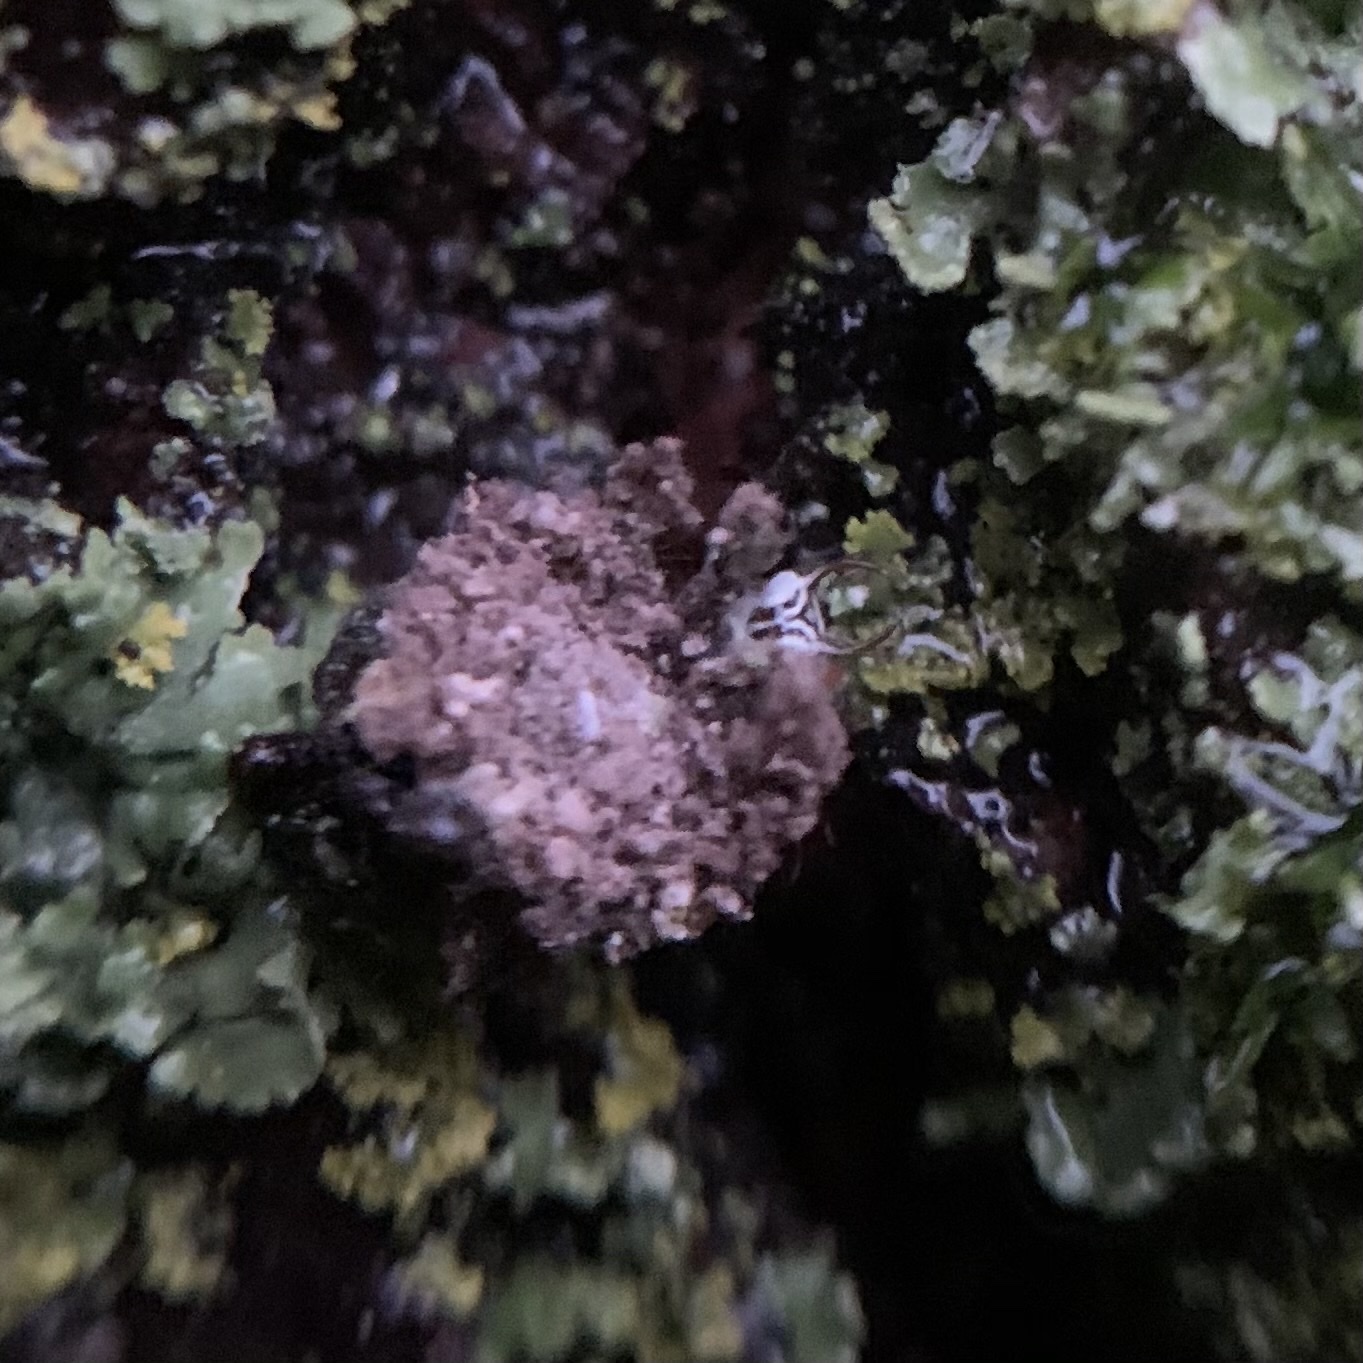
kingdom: Animalia
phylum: Arthropoda
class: Insecta
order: Neuroptera
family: Chrysopidae
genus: Leucochrysa
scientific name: Leucochrysa pavida
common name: Lichen-carrying green lacewing
